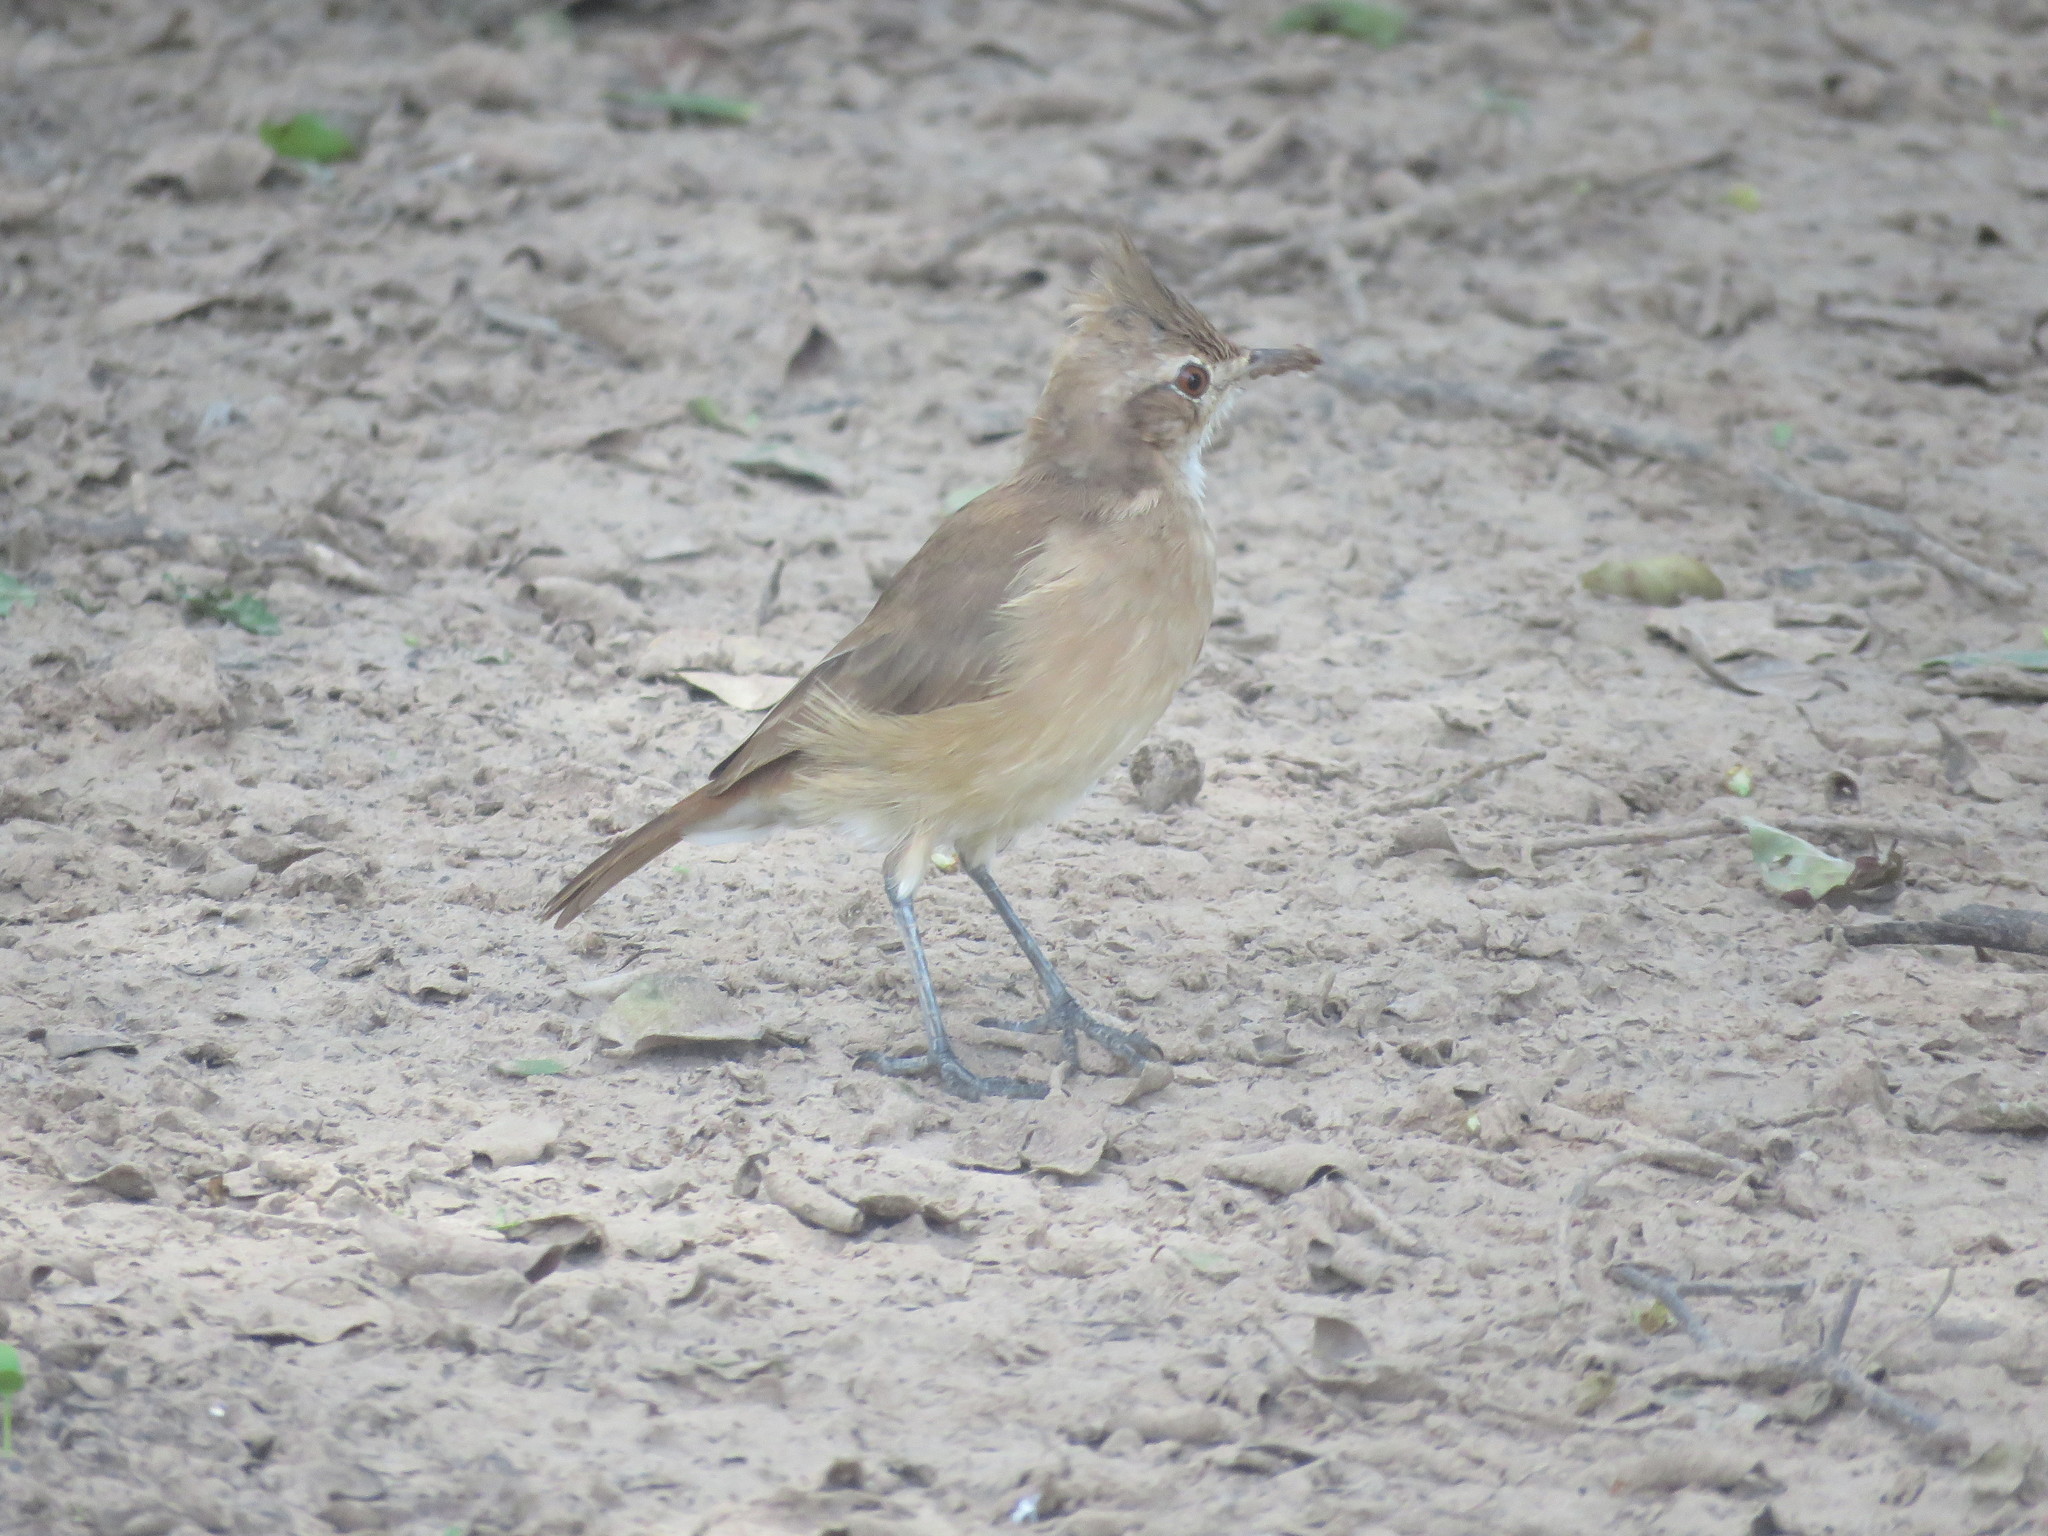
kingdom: Animalia
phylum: Chordata
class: Aves
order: Passeriformes
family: Furnariidae
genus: Furnarius
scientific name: Furnarius cristatus
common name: Crested hornero
